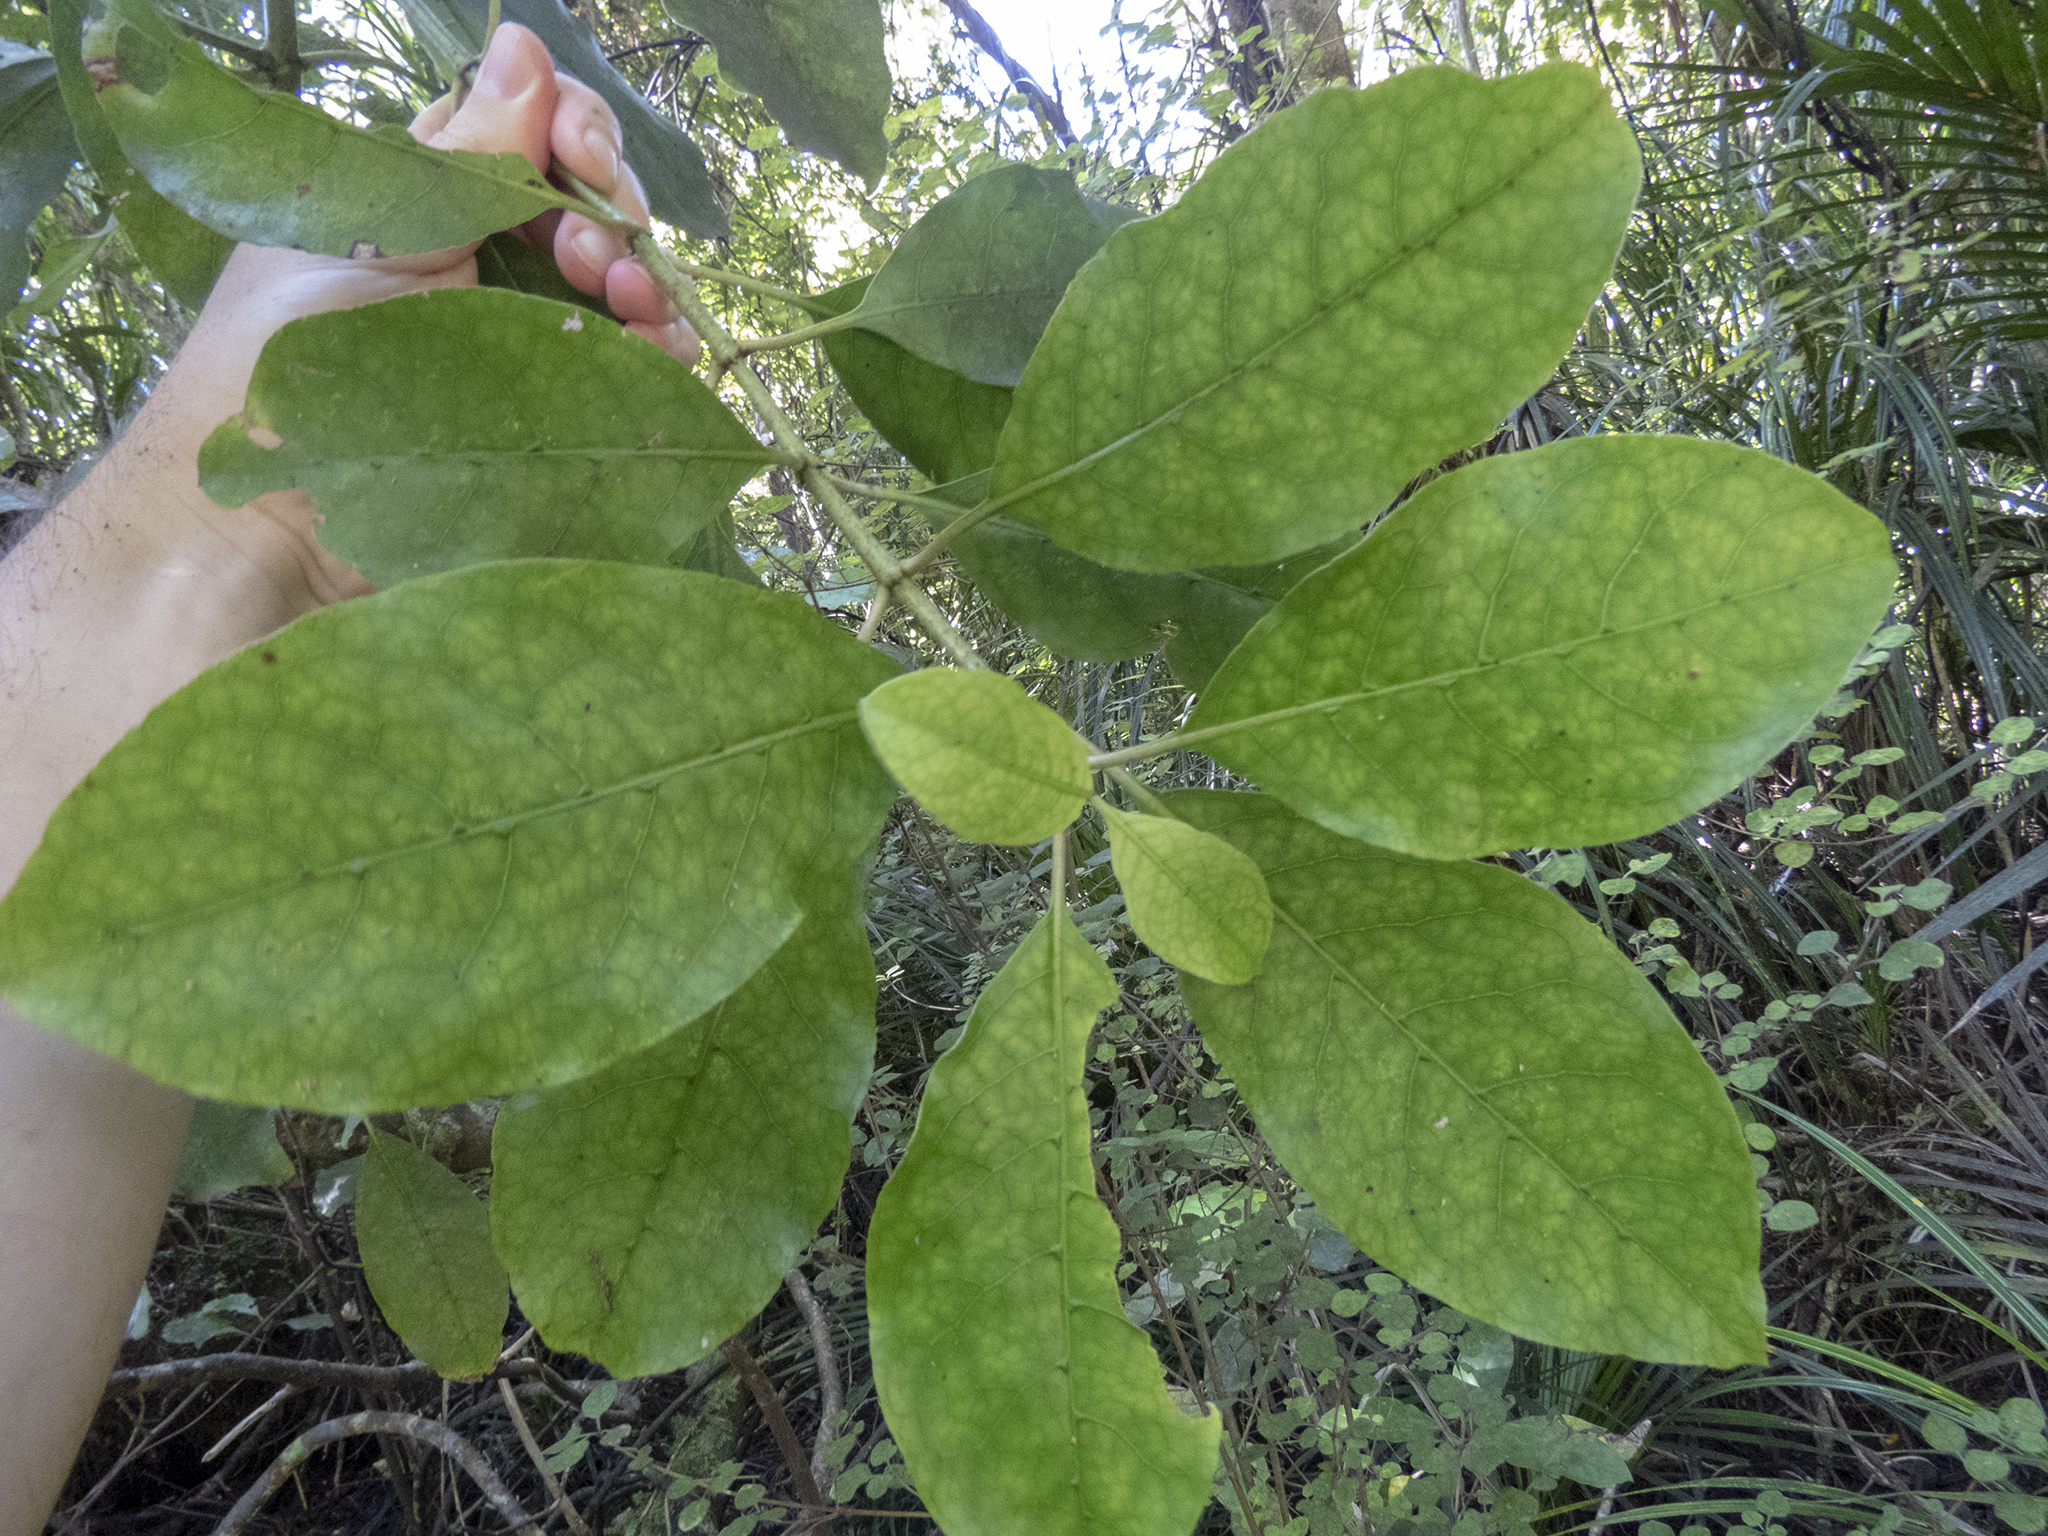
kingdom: Plantae
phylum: Tracheophyta
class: Magnoliopsida
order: Gentianales
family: Rubiaceae
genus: Coprosma
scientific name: Coprosma autumnalis
